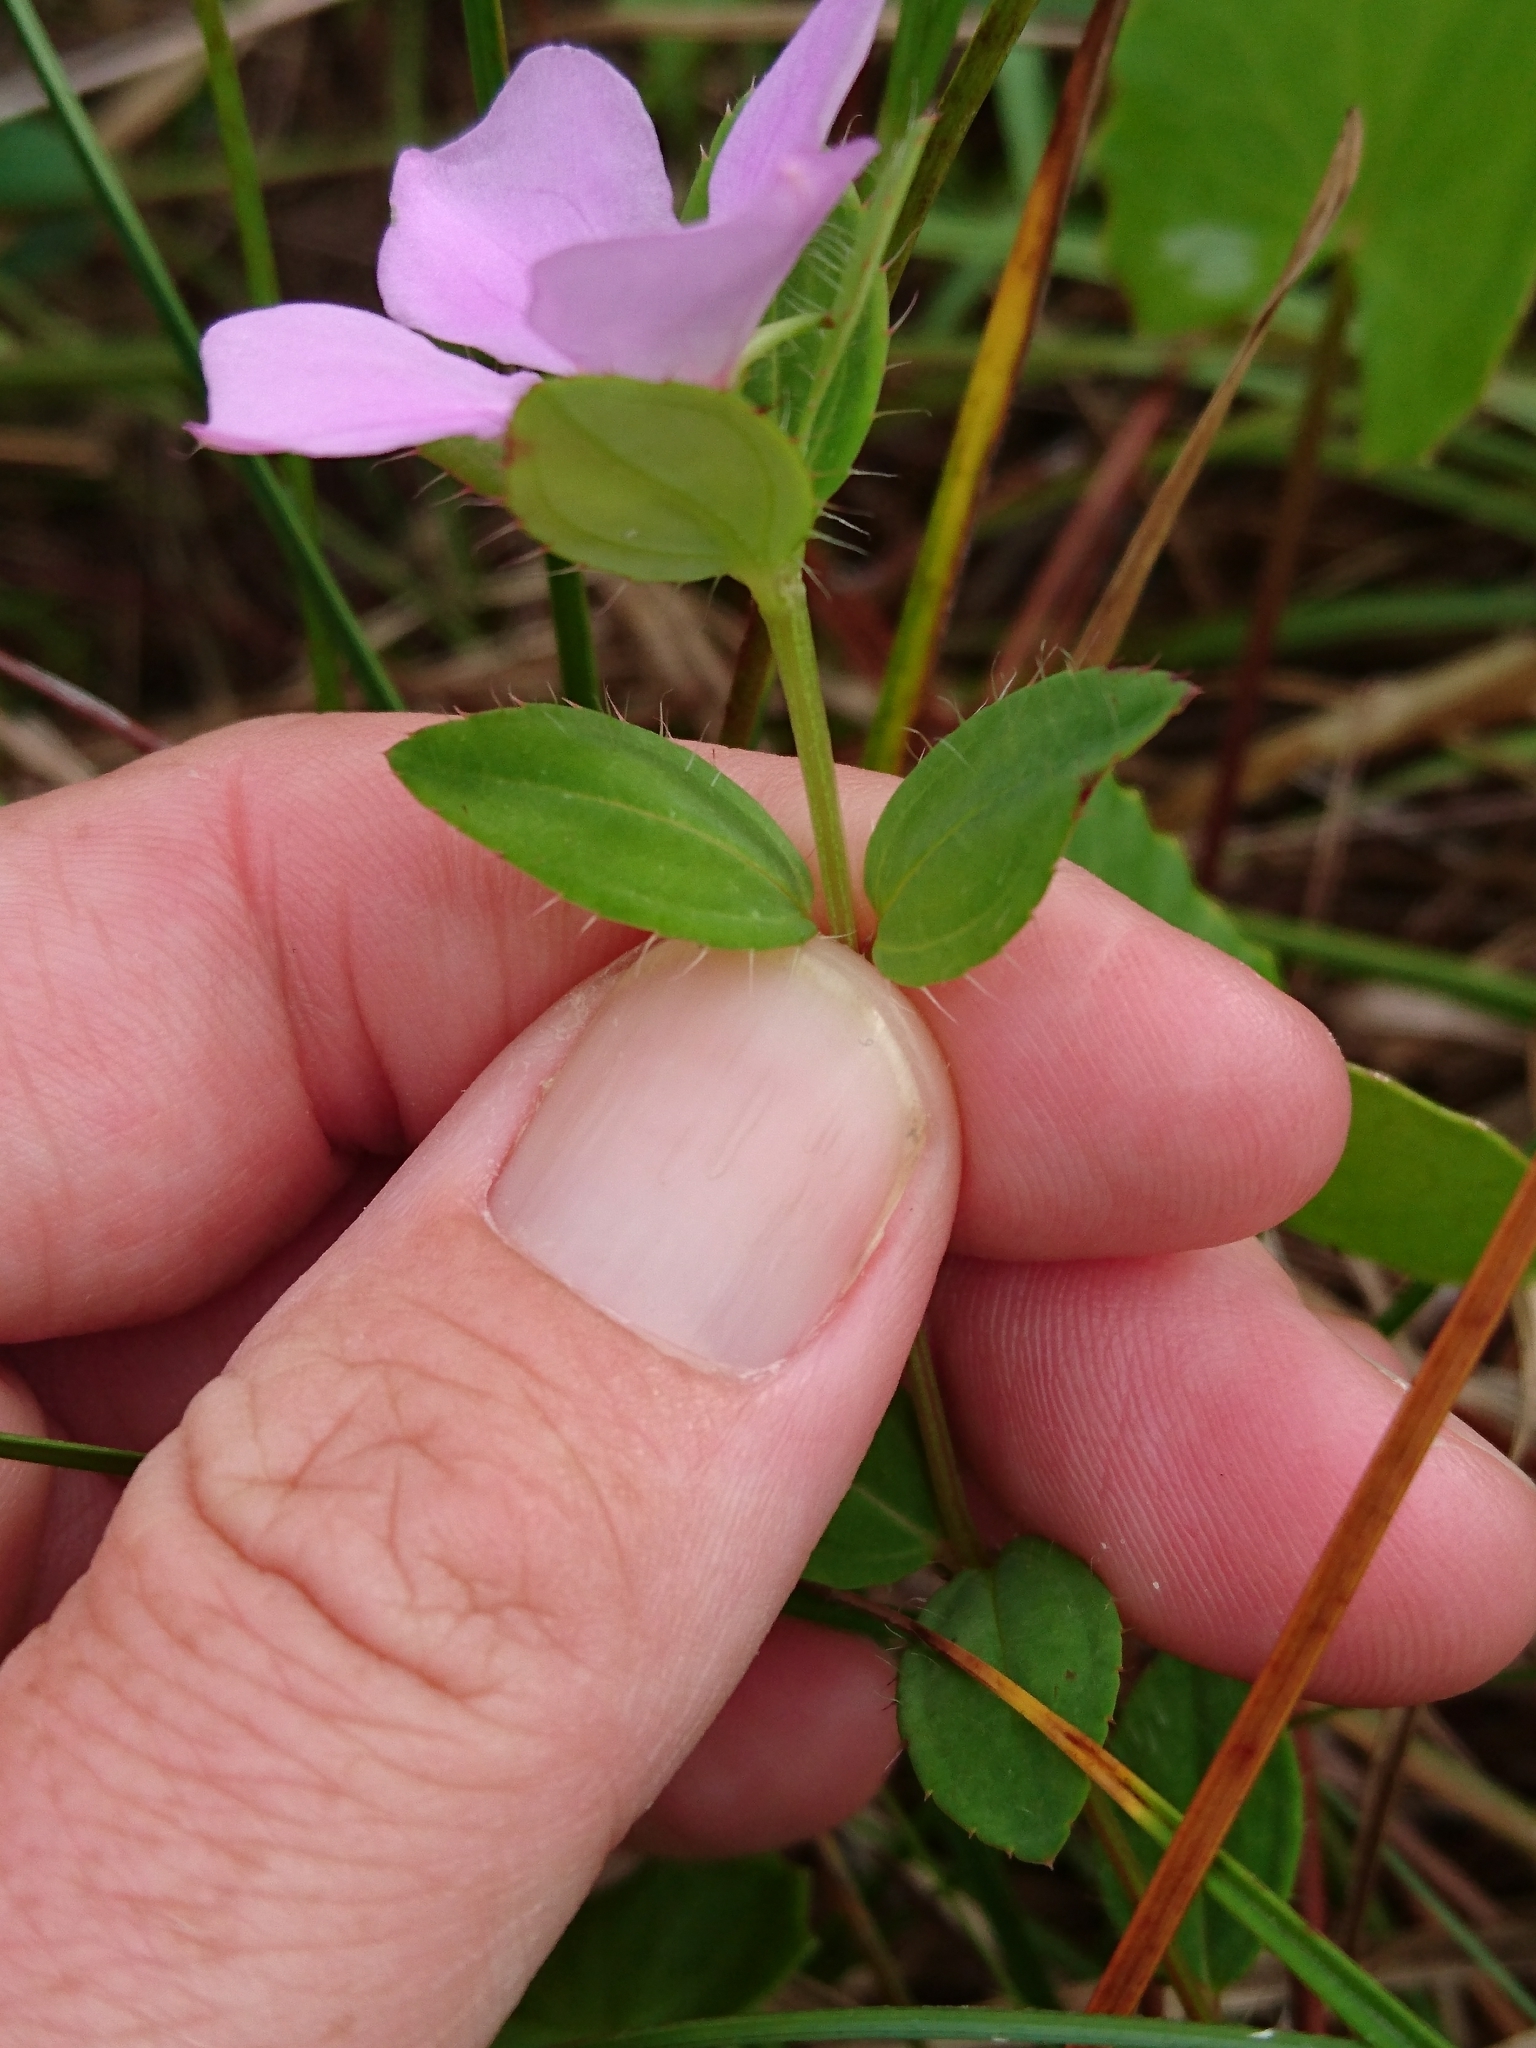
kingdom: Plantae
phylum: Tracheophyta
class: Magnoliopsida
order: Myrtales
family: Melastomataceae
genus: Rhexia
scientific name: Rhexia petiolata
